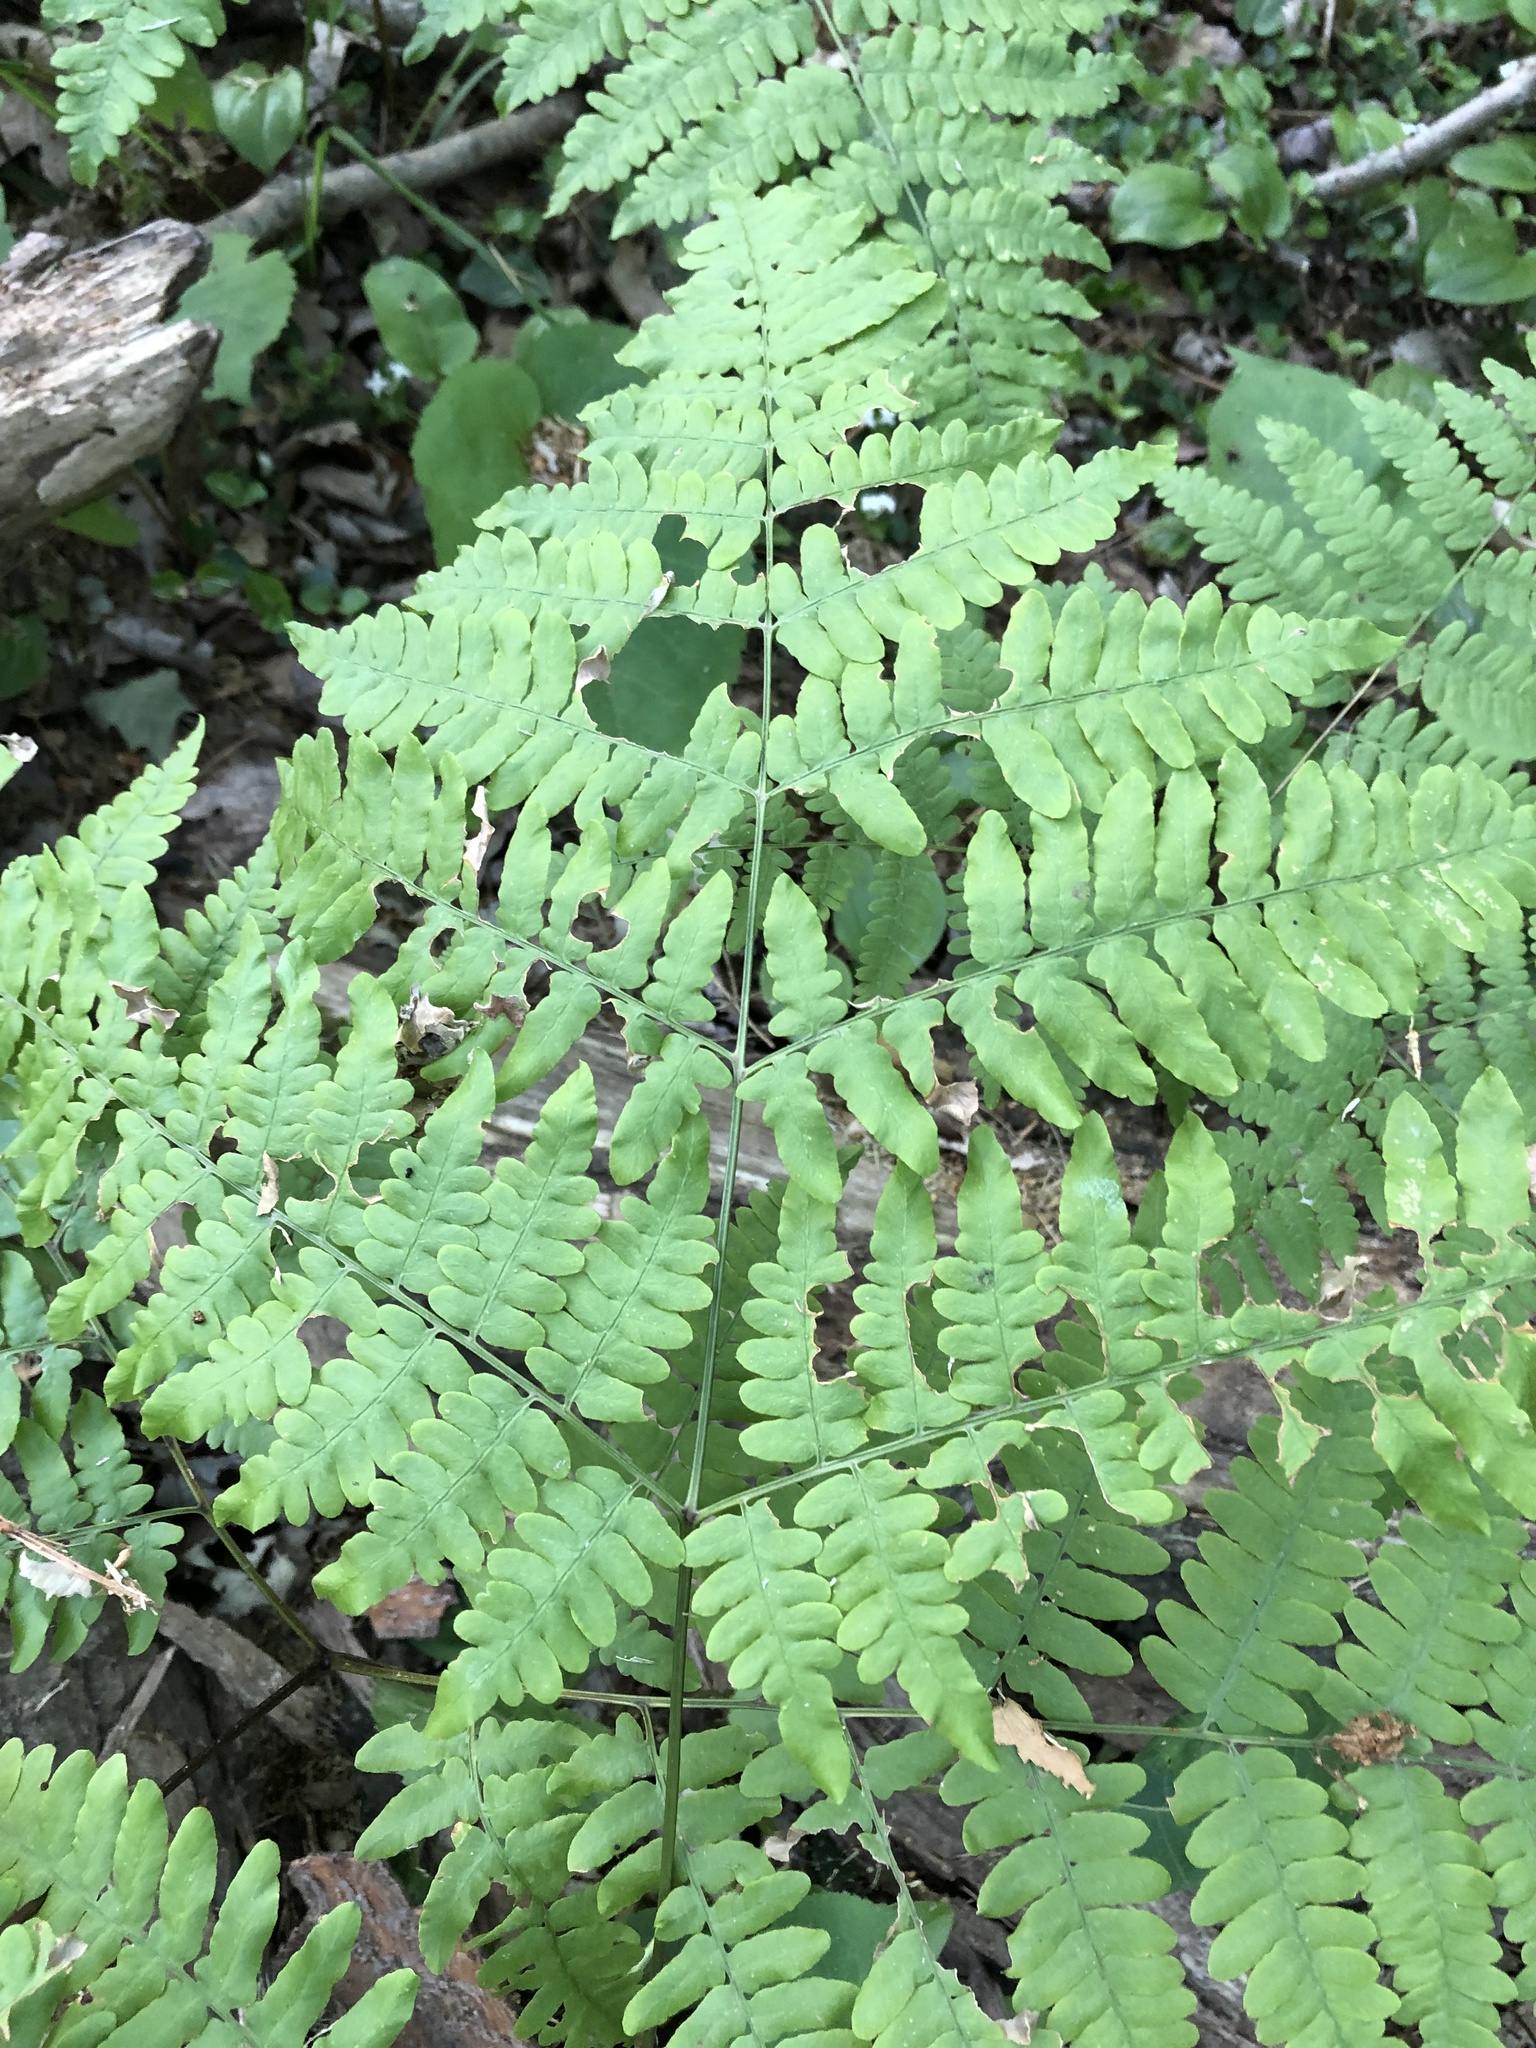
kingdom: Plantae
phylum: Tracheophyta
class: Polypodiopsida
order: Polypodiales
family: Dennstaedtiaceae
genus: Pteridium
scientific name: Pteridium aquilinum
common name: Bracken
